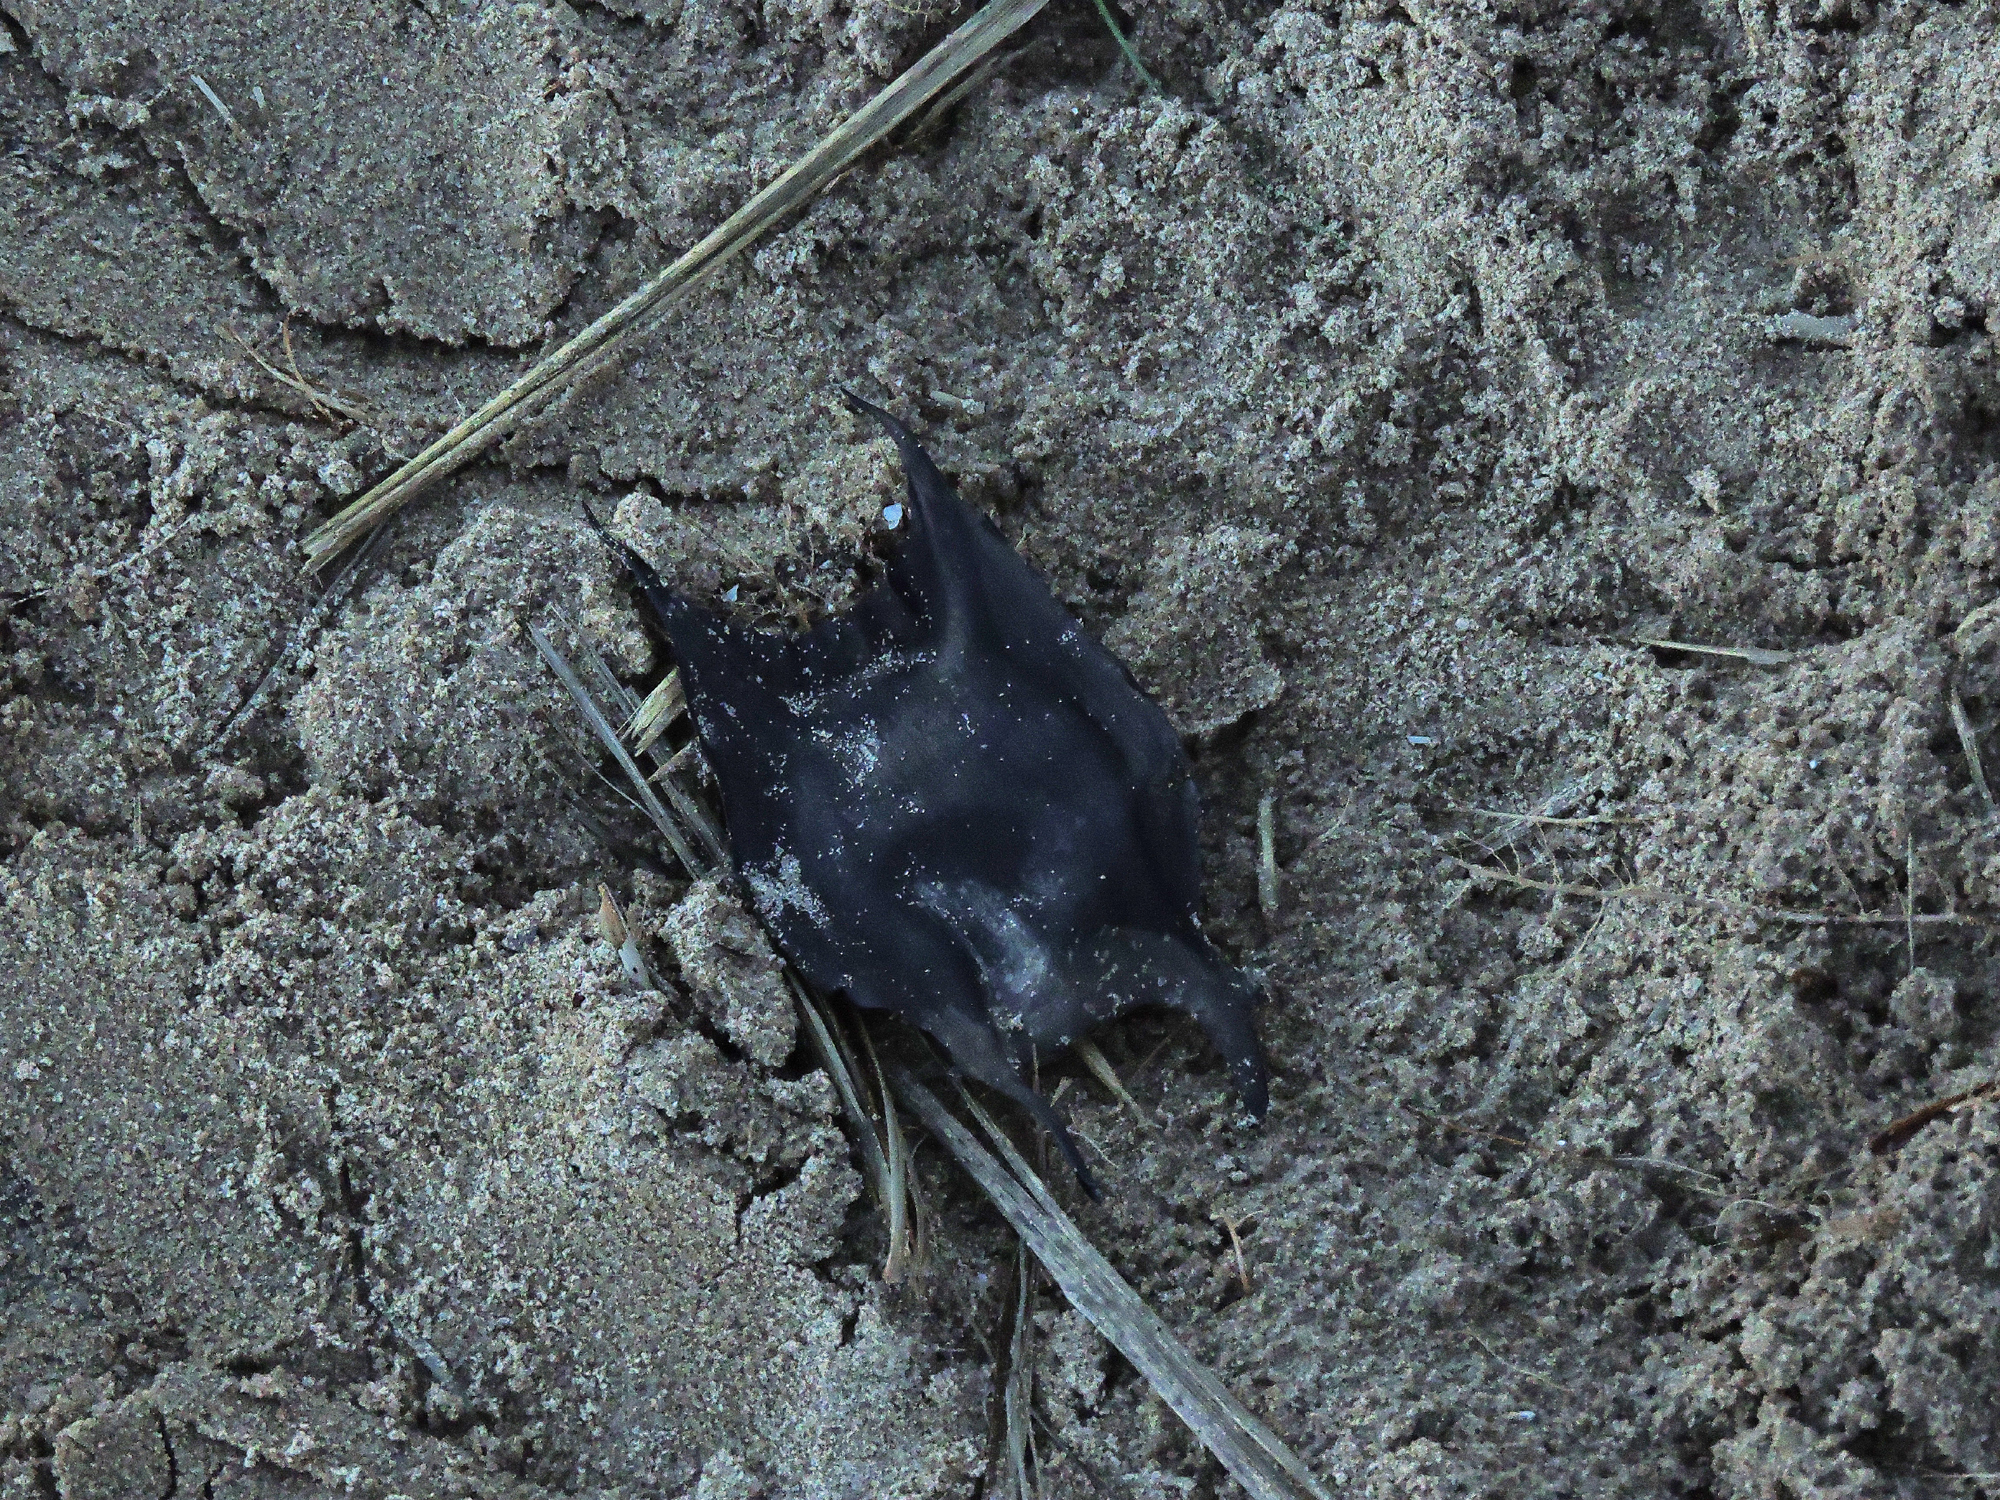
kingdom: Animalia
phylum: Chordata
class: Elasmobranchii
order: Rajiformes
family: Rajidae
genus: Raja
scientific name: Raja clavata
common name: Thornback ray
